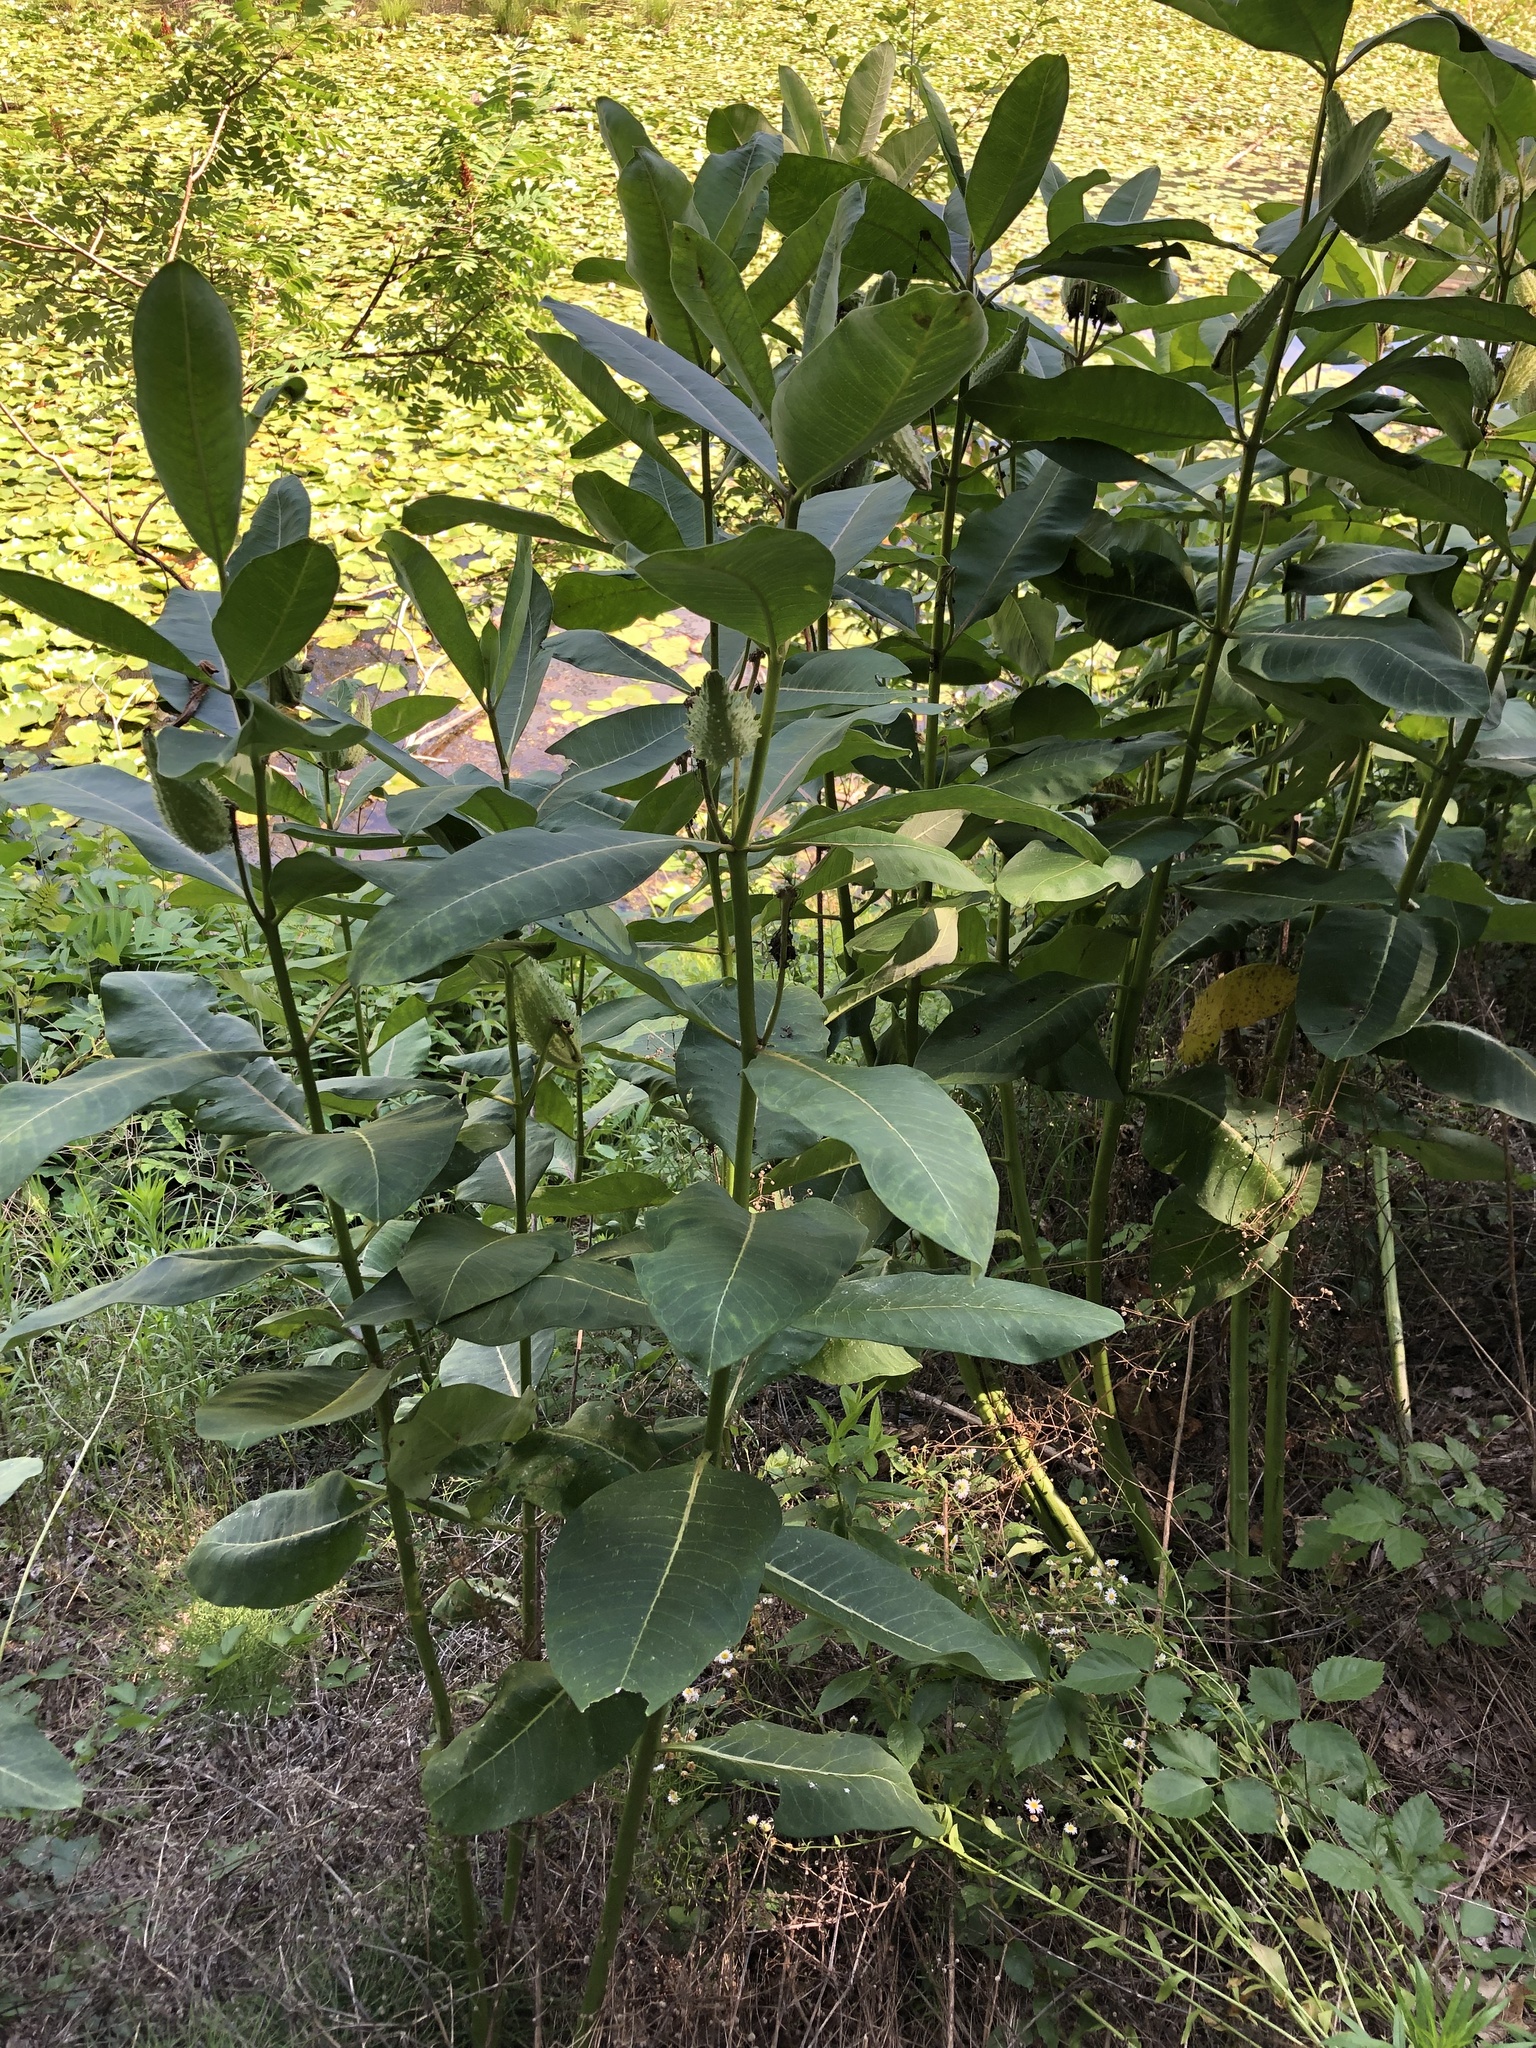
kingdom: Plantae
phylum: Tracheophyta
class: Magnoliopsida
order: Gentianales
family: Apocynaceae
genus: Asclepias
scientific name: Asclepias syriaca
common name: Common milkweed
